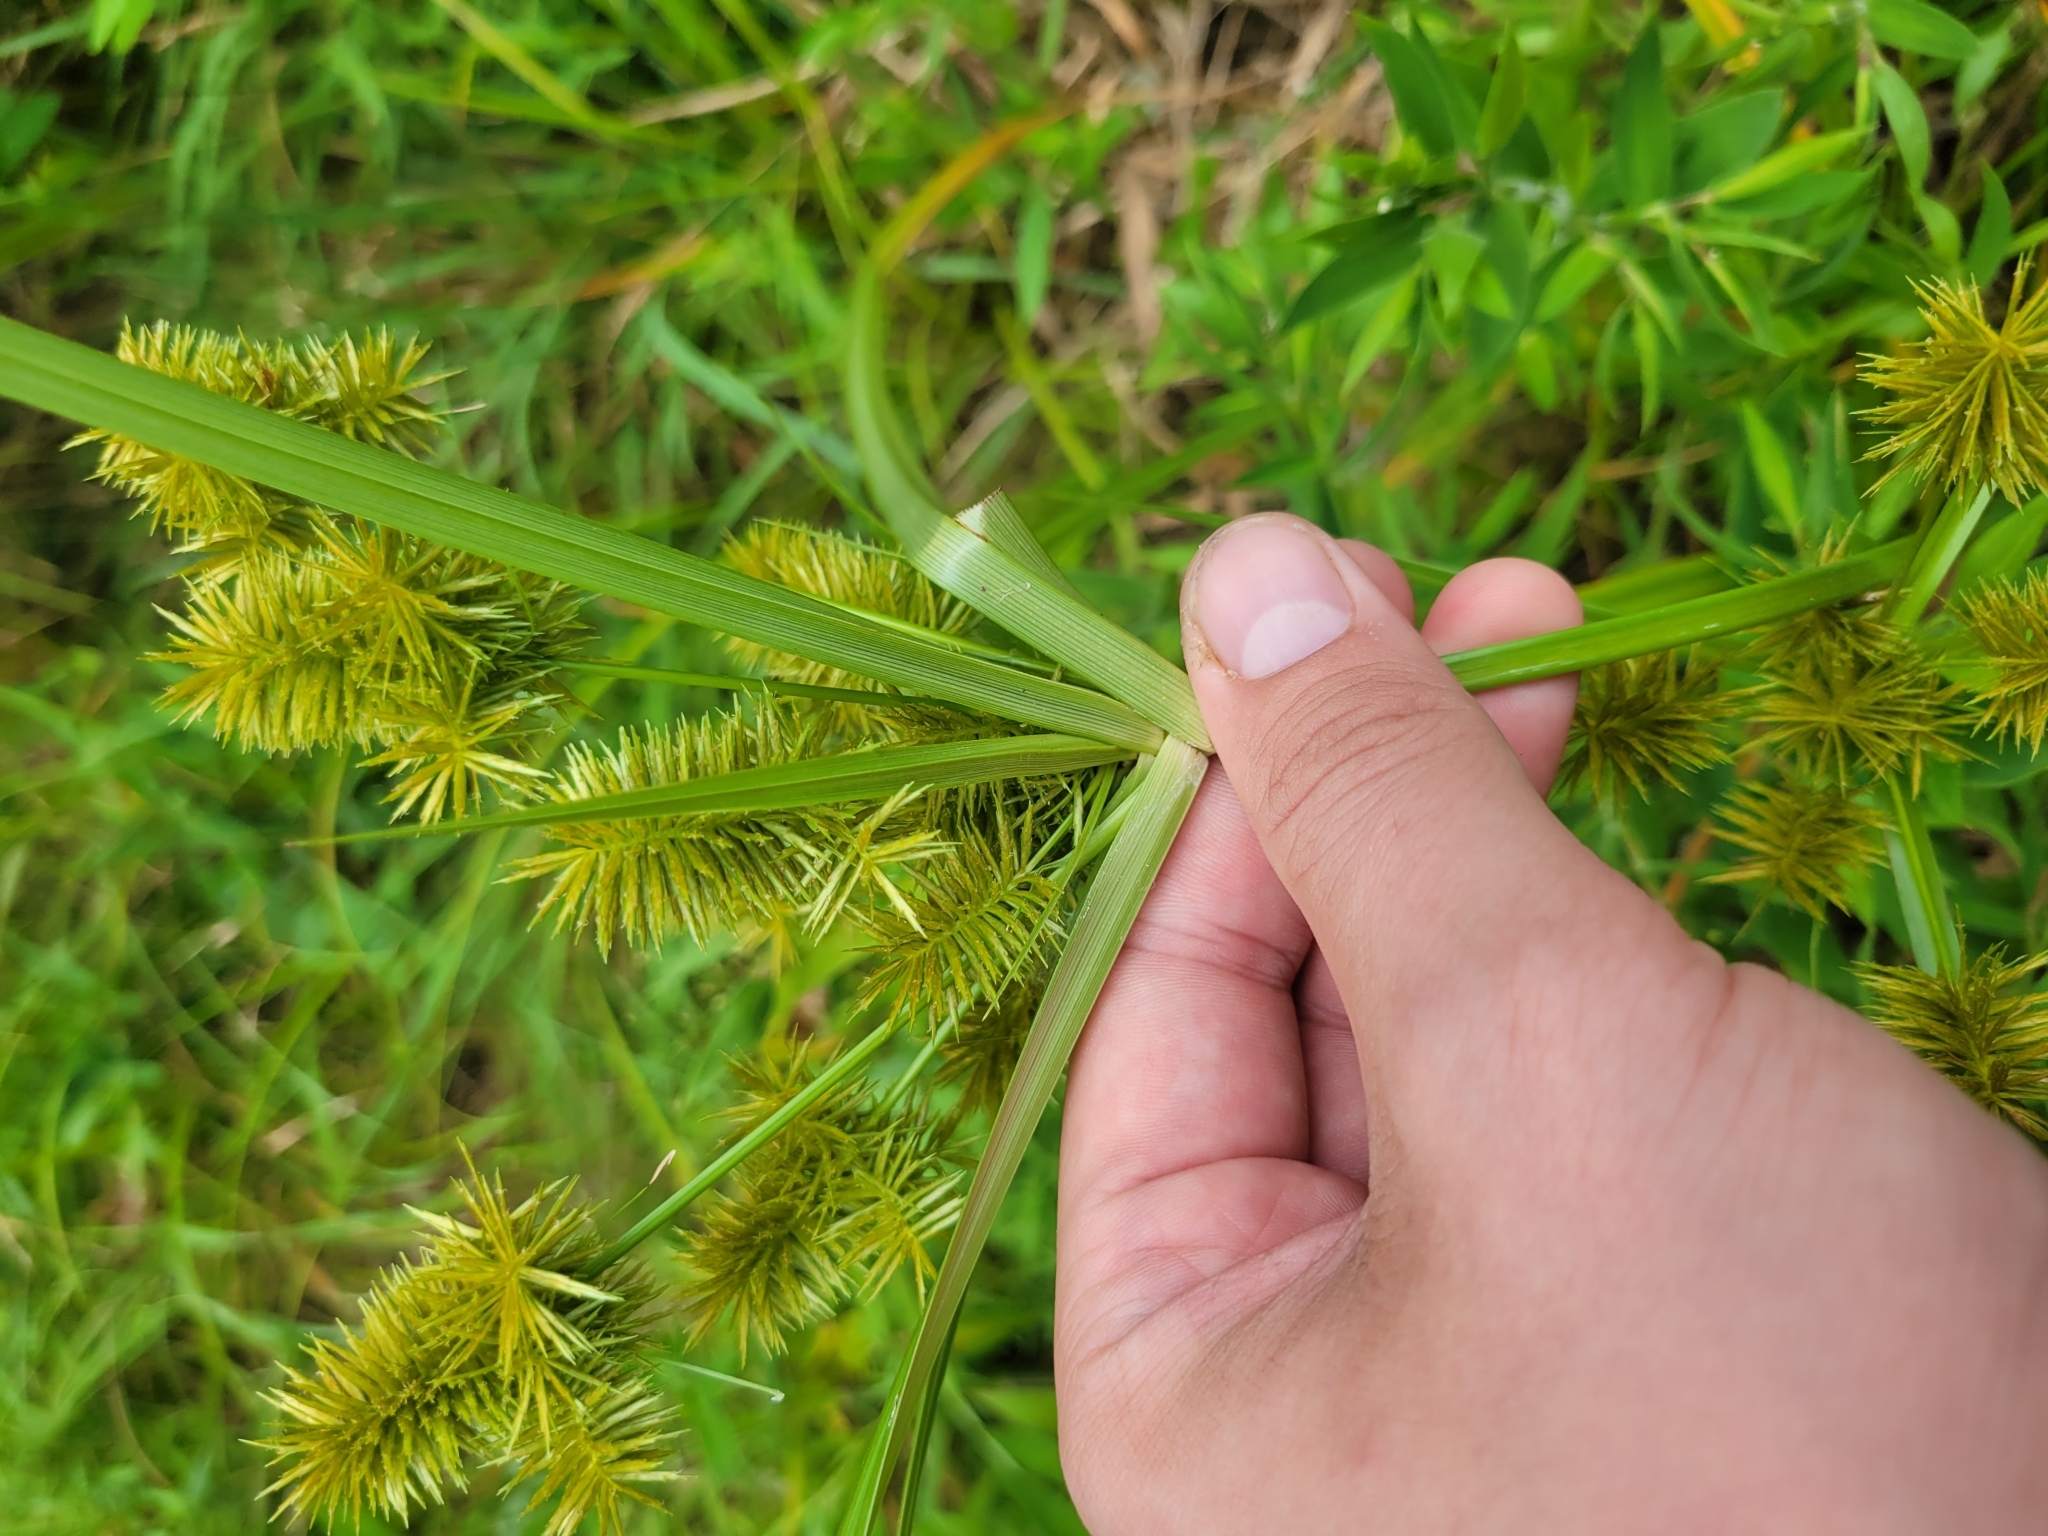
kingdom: Plantae
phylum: Tracheophyta
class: Liliopsida
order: Poales
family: Cyperaceae
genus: Cyperus
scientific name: Cyperus strigosus
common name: False nutsedge
